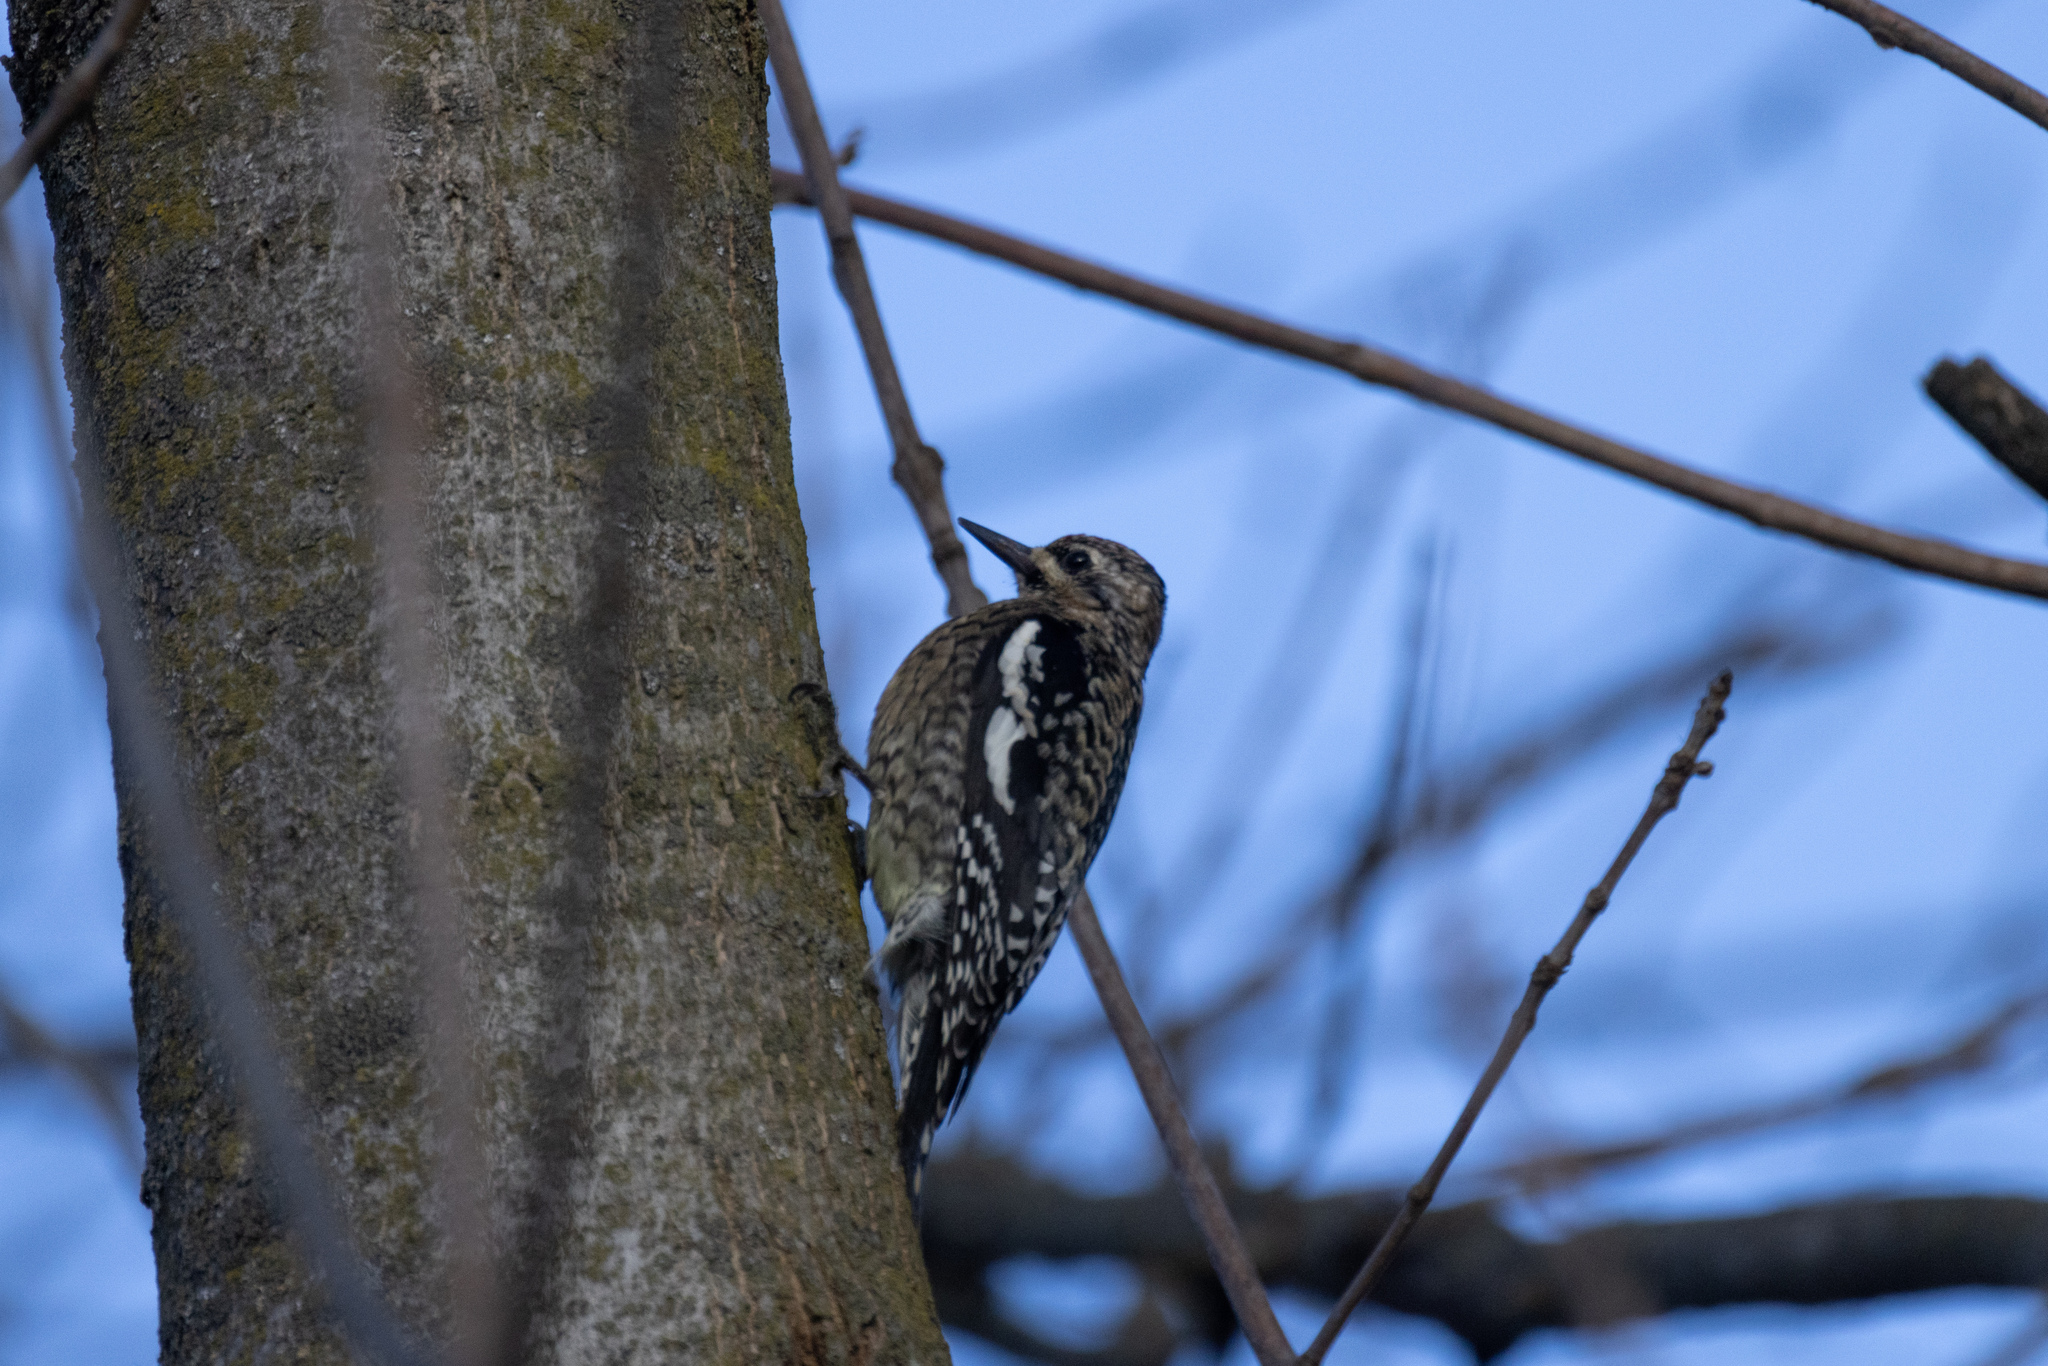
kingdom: Animalia
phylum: Chordata
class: Aves
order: Piciformes
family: Picidae
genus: Sphyrapicus
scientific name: Sphyrapicus varius
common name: Yellow-bellied sapsucker
